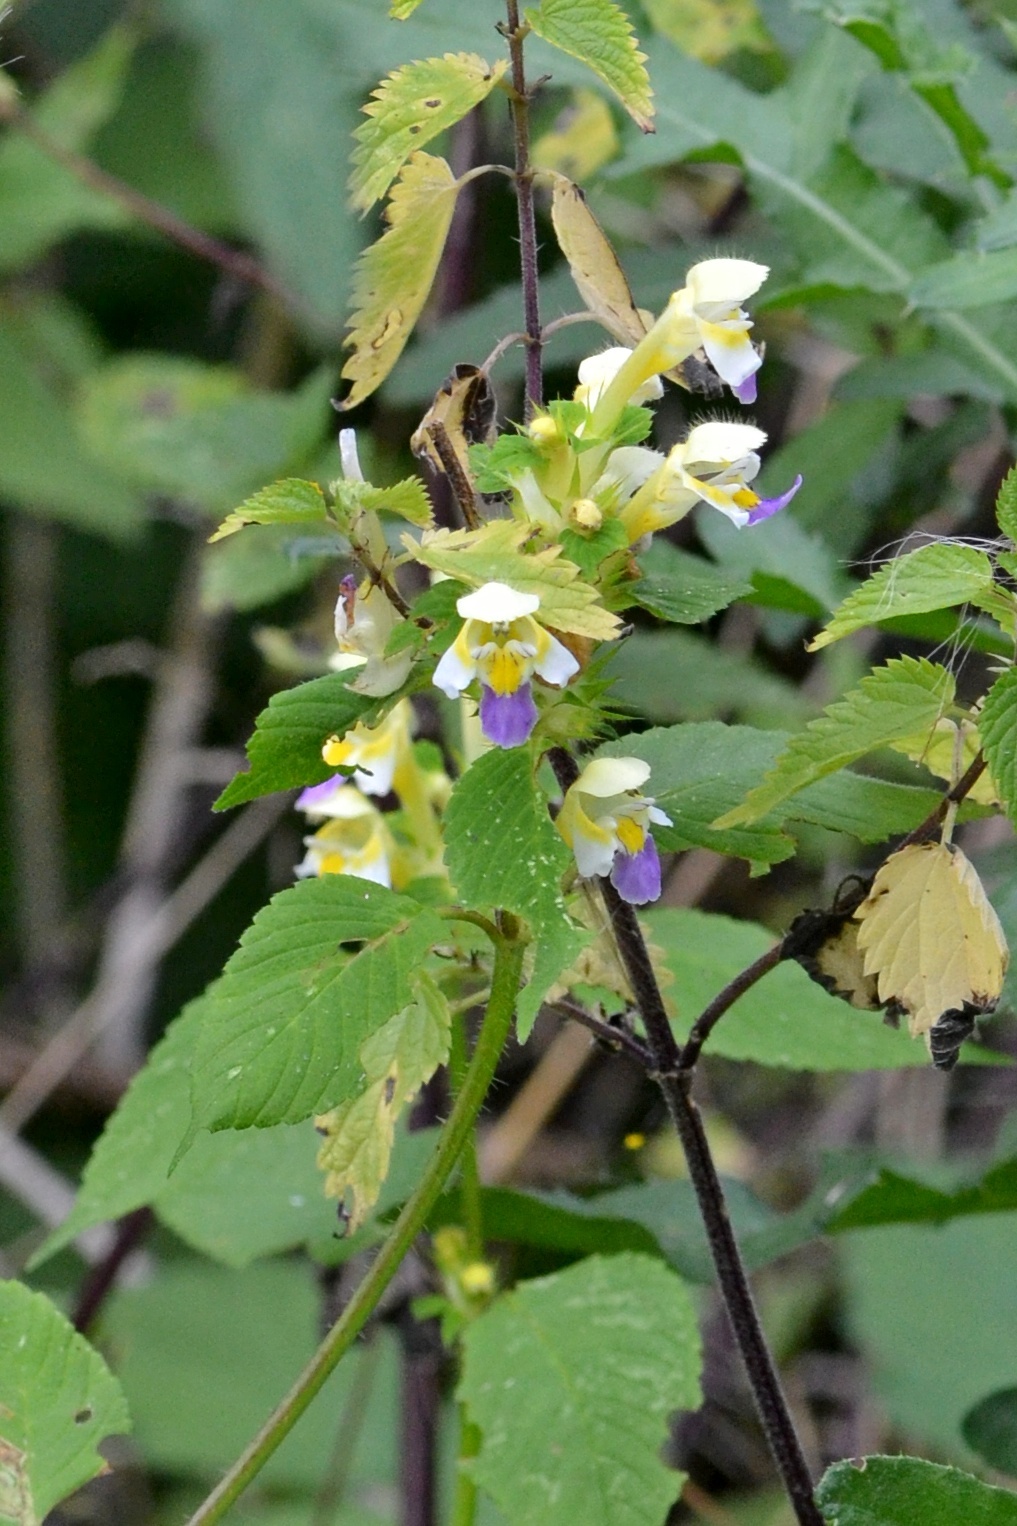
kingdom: Plantae
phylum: Tracheophyta
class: Magnoliopsida
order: Lamiales
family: Lamiaceae
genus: Galeopsis
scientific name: Galeopsis speciosa
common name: Large-flowered hemp-nettle
